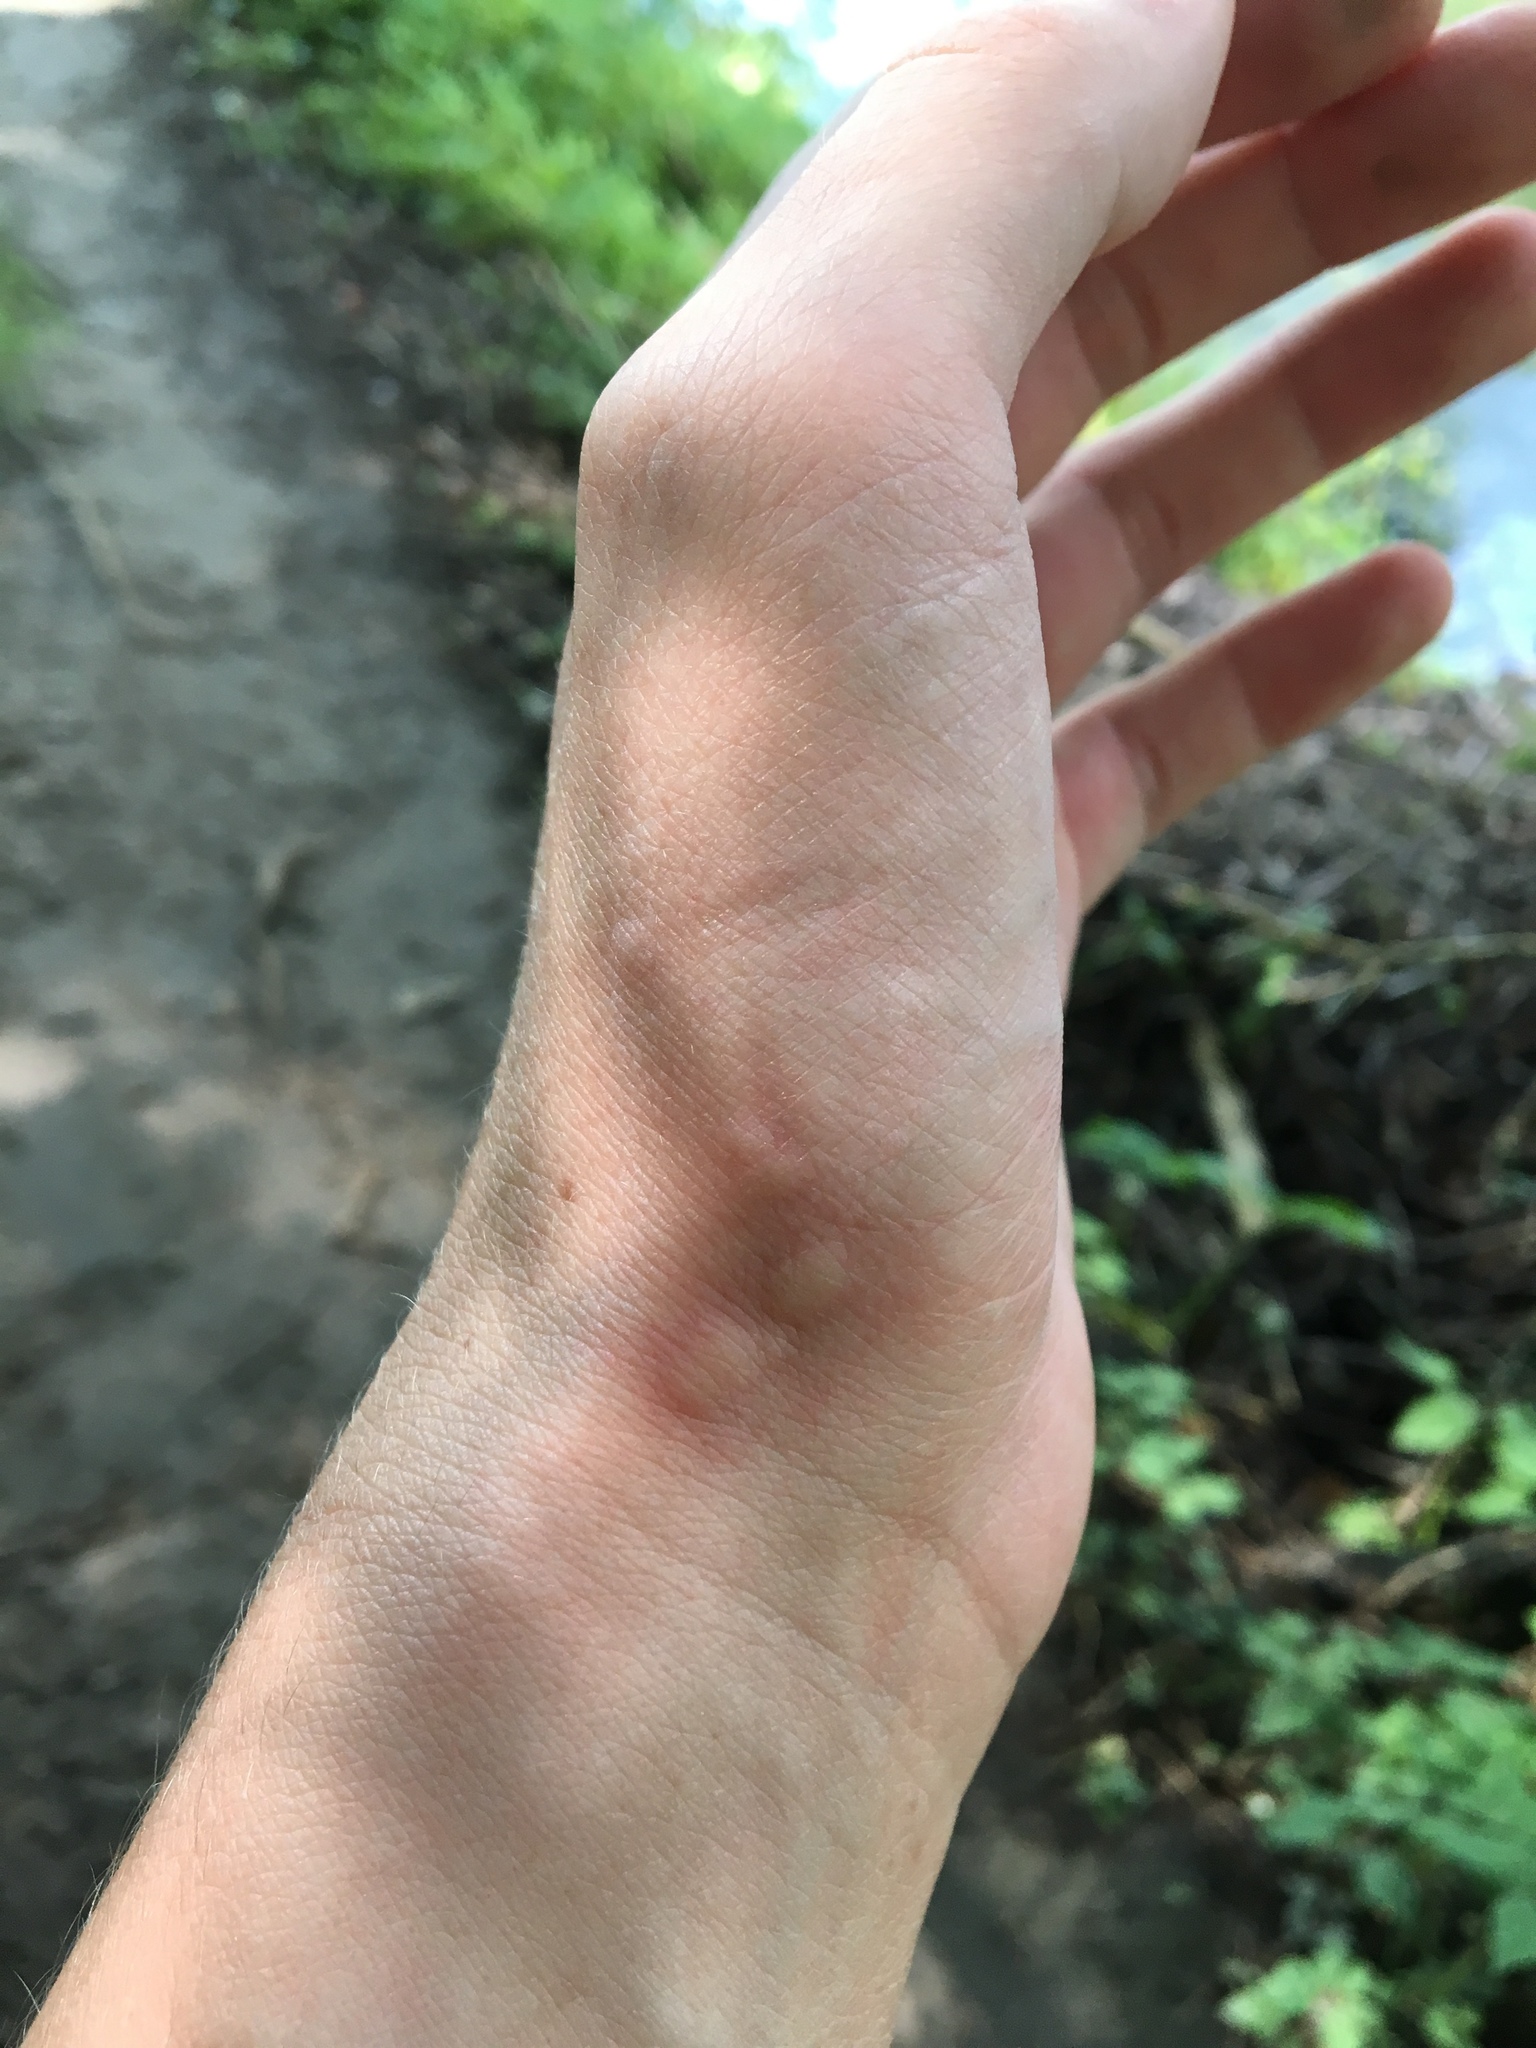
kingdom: Plantae
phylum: Tracheophyta
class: Magnoliopsida
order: Rosales
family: Urticaceae
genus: Urtica
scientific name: Urtica dioica
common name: Common nettle
